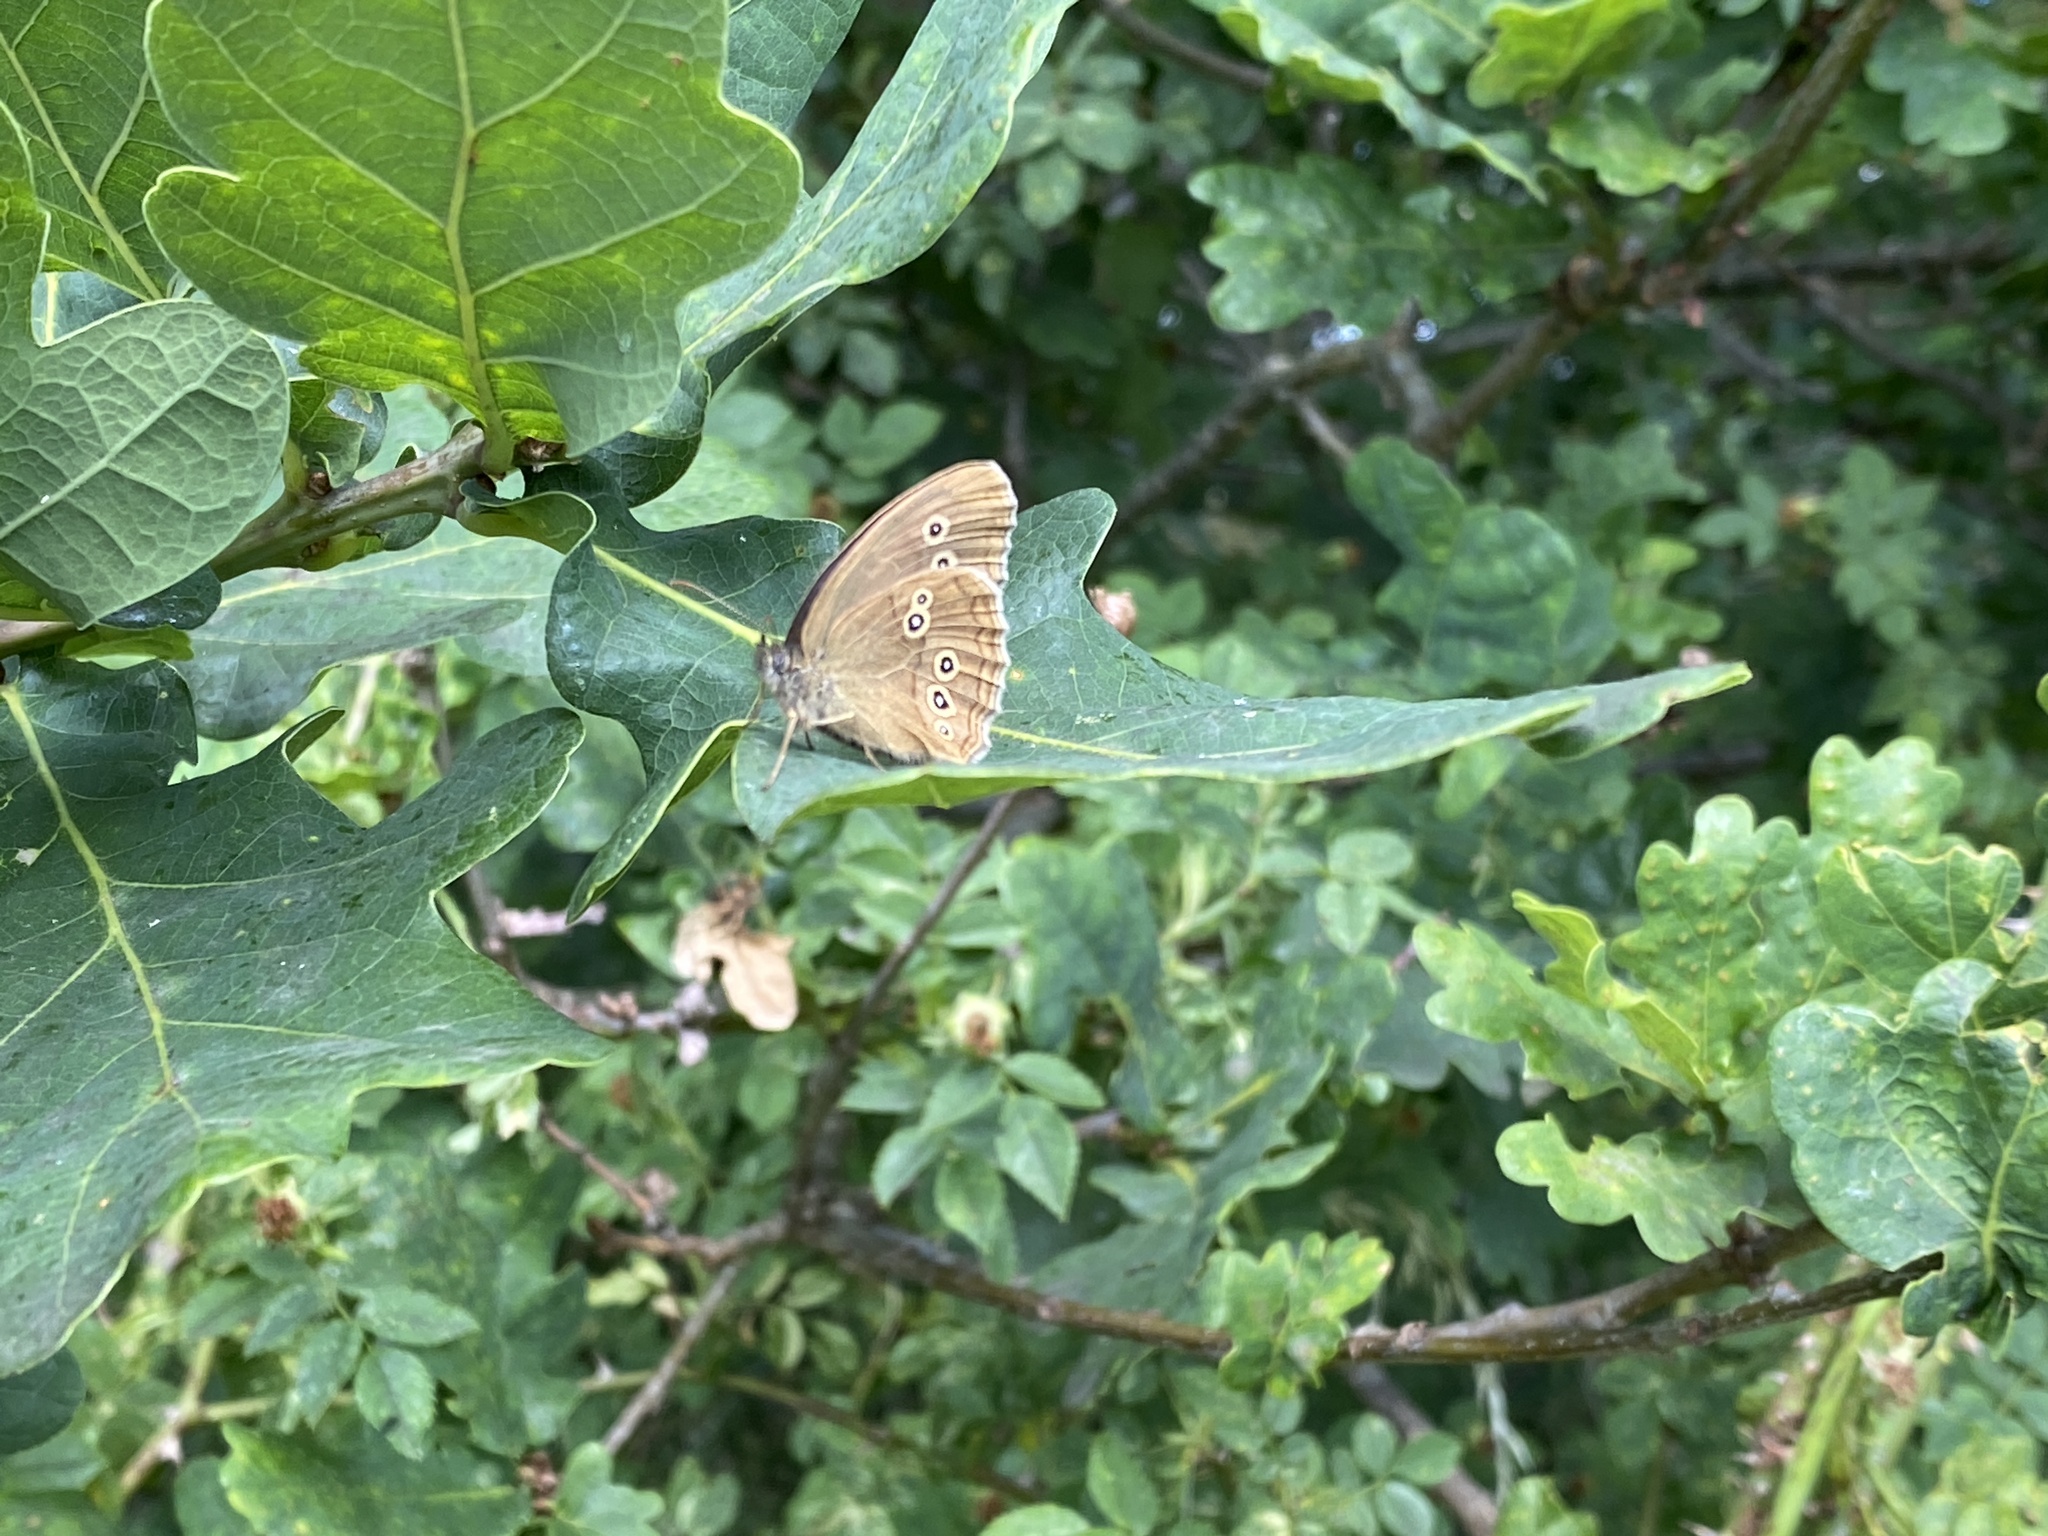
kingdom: Animalia
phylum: Arthropoda
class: Insecta
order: Lepidoptera
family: Nymphalidae
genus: Aphantopus
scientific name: Aphantopus hyperantus
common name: Ringlet
